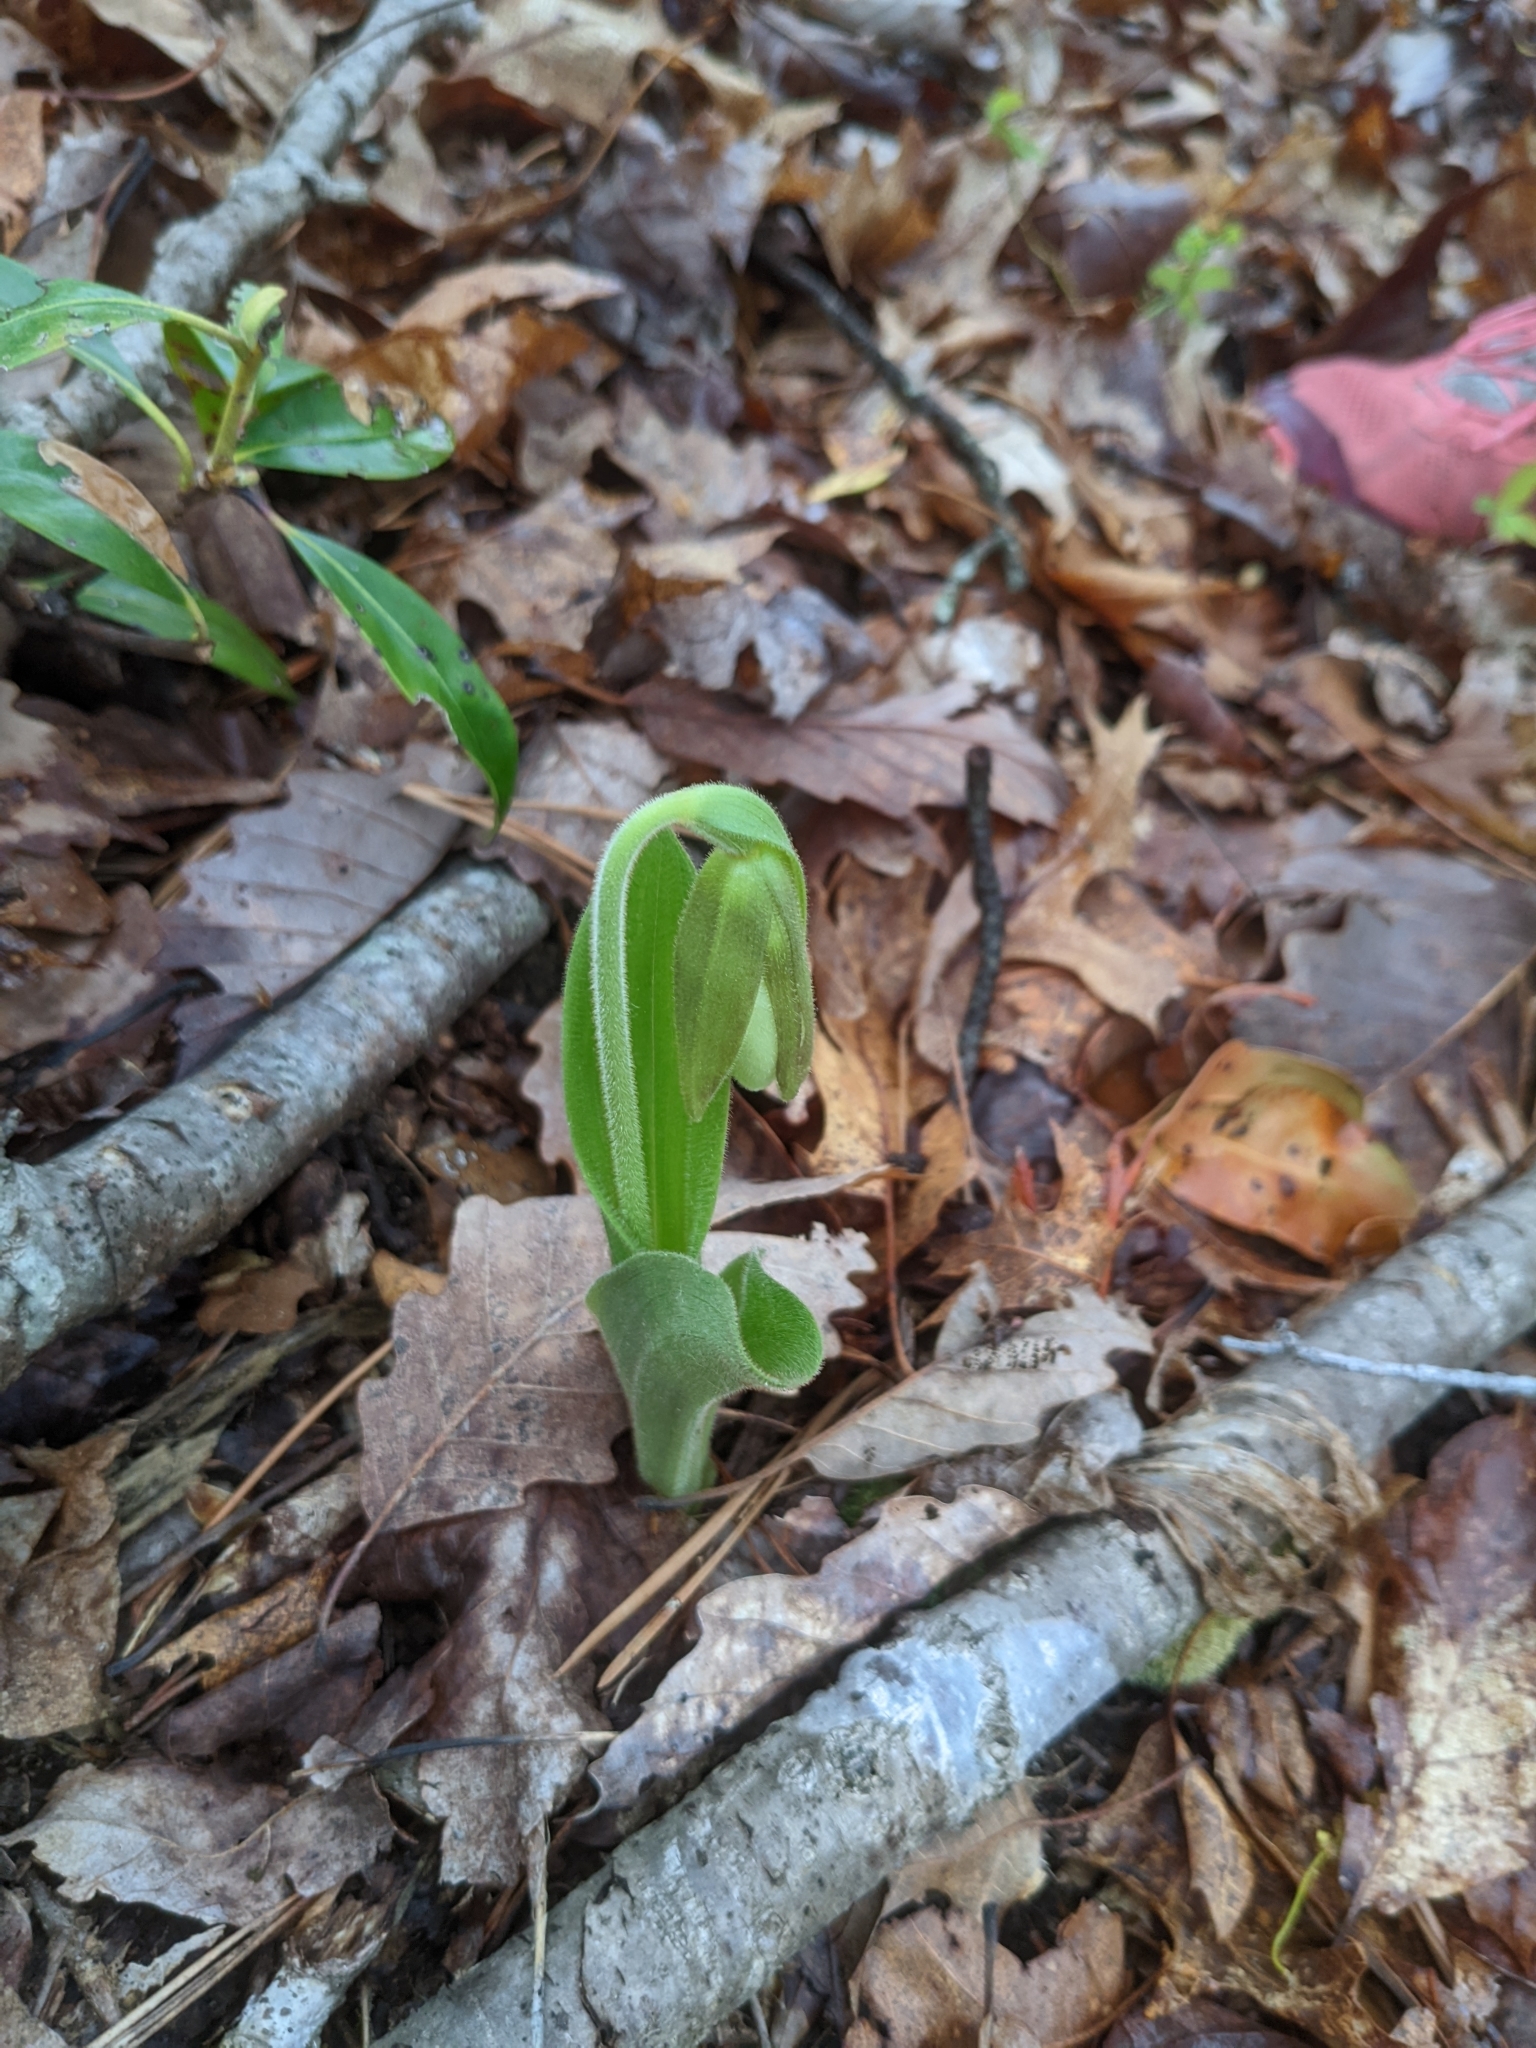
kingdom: Plantae
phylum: Tracheophyta
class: Liliopsida
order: Asparagales
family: Orchidaceae
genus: Cypripedium
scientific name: Cypripedium acaule
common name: Pink lady's-slipper
